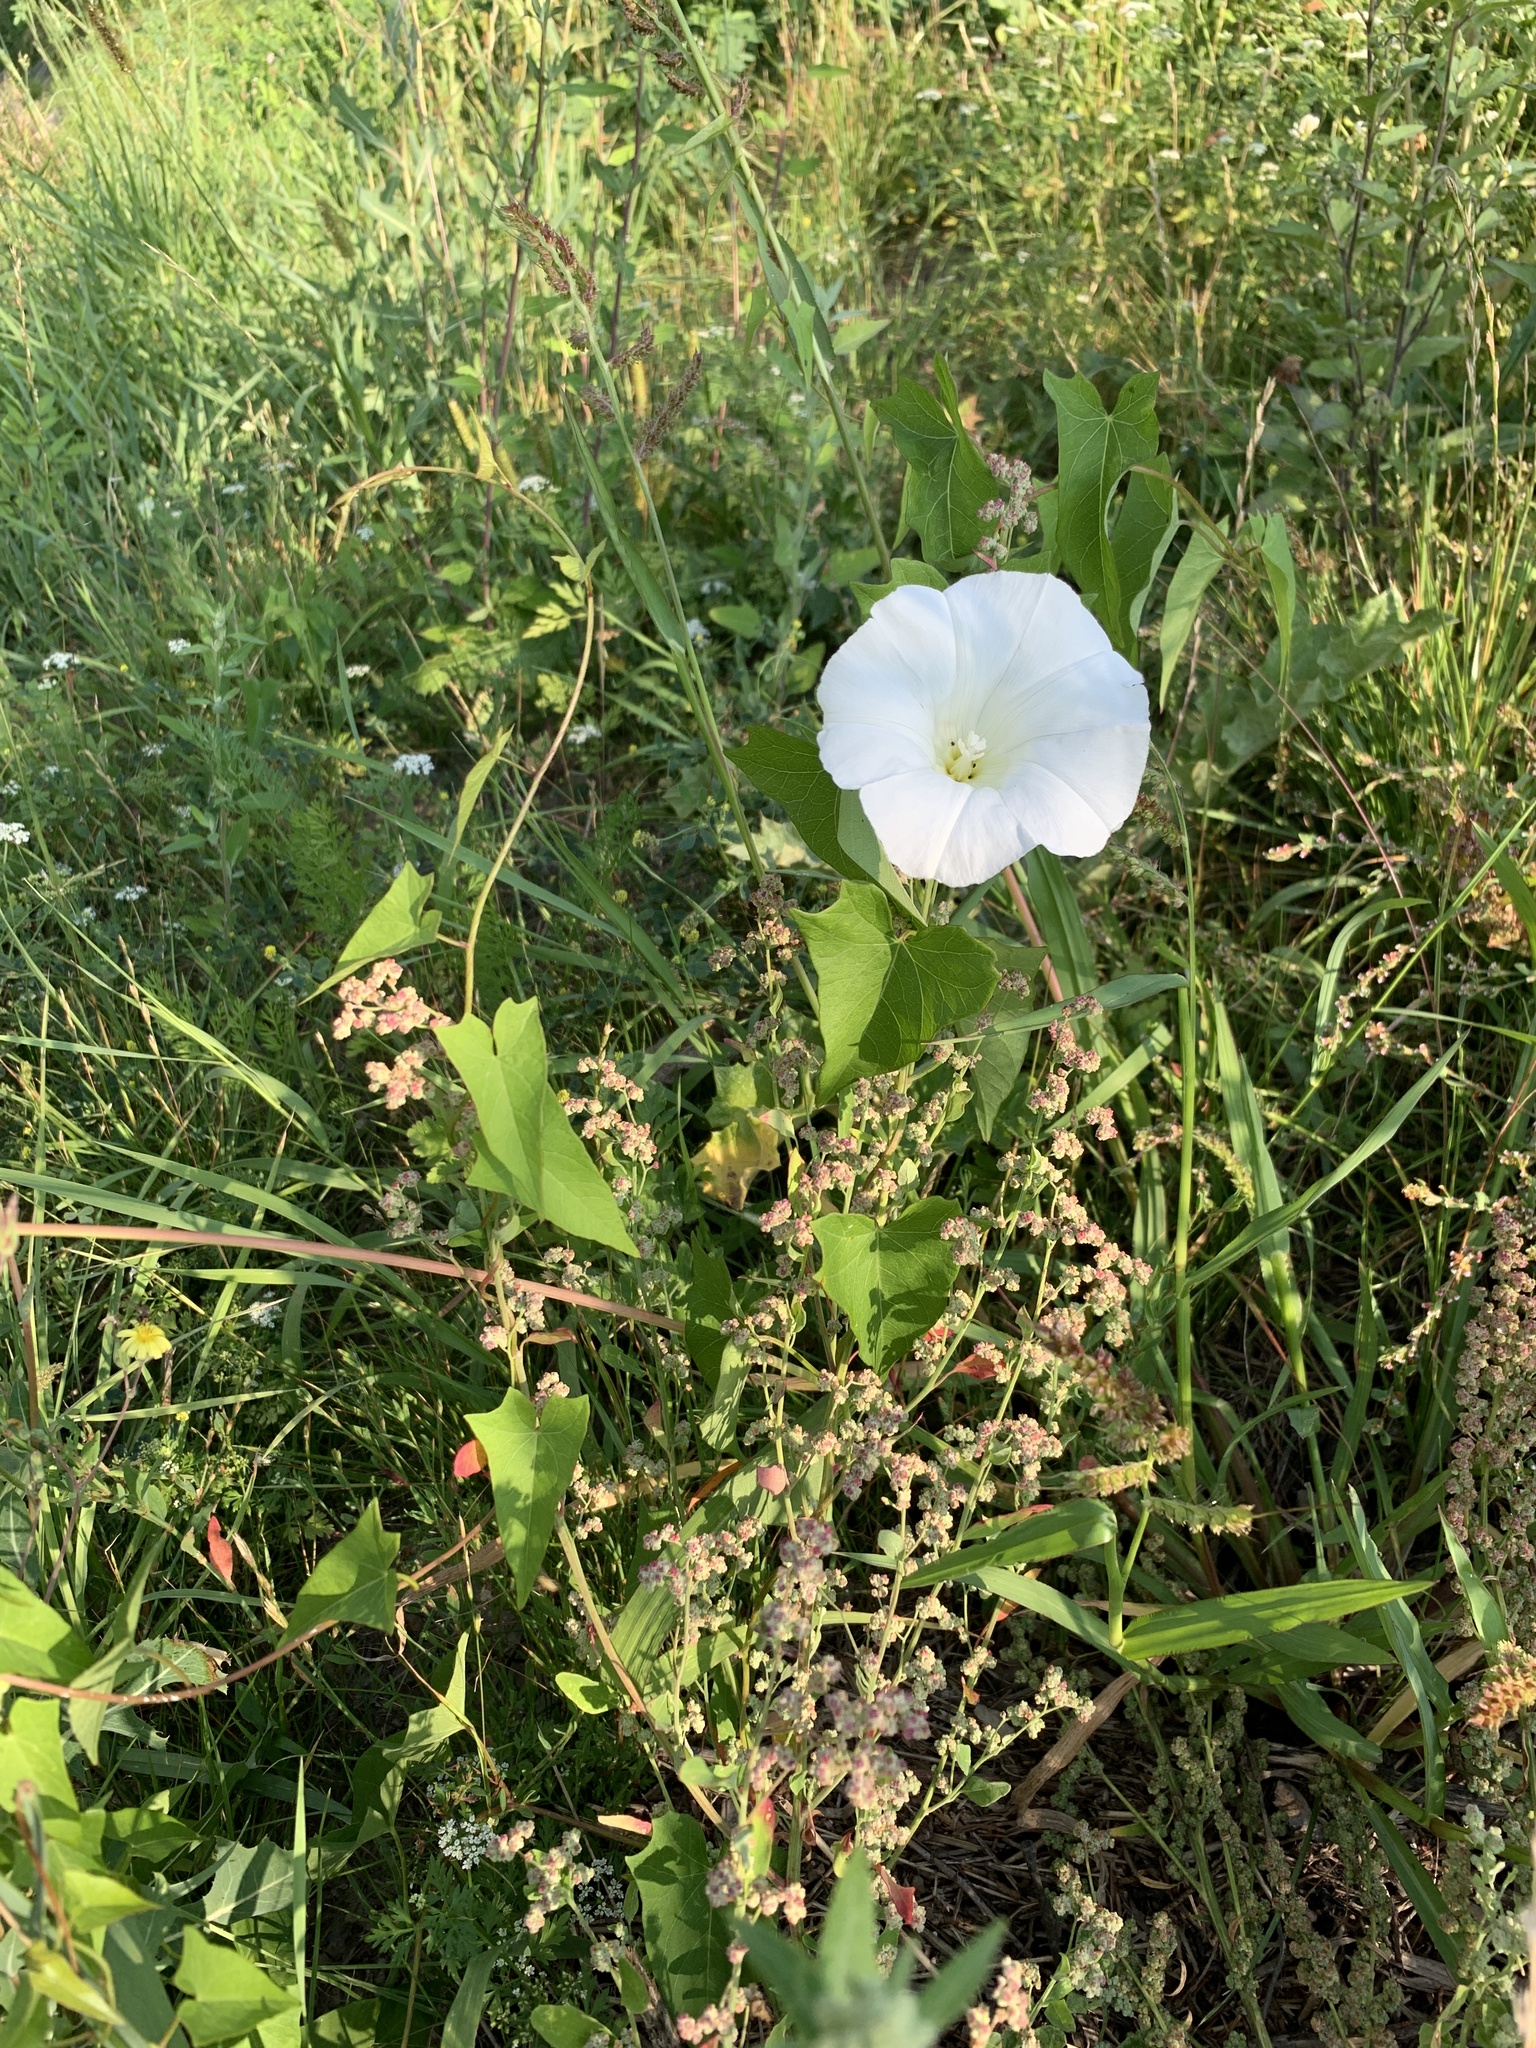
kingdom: Plantae
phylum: Tracheophyta
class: Magnoliopsida
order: Solanales
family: Convolvulaceae
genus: Calystegia
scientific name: Calystegia sepium
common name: Hedge bindweed
